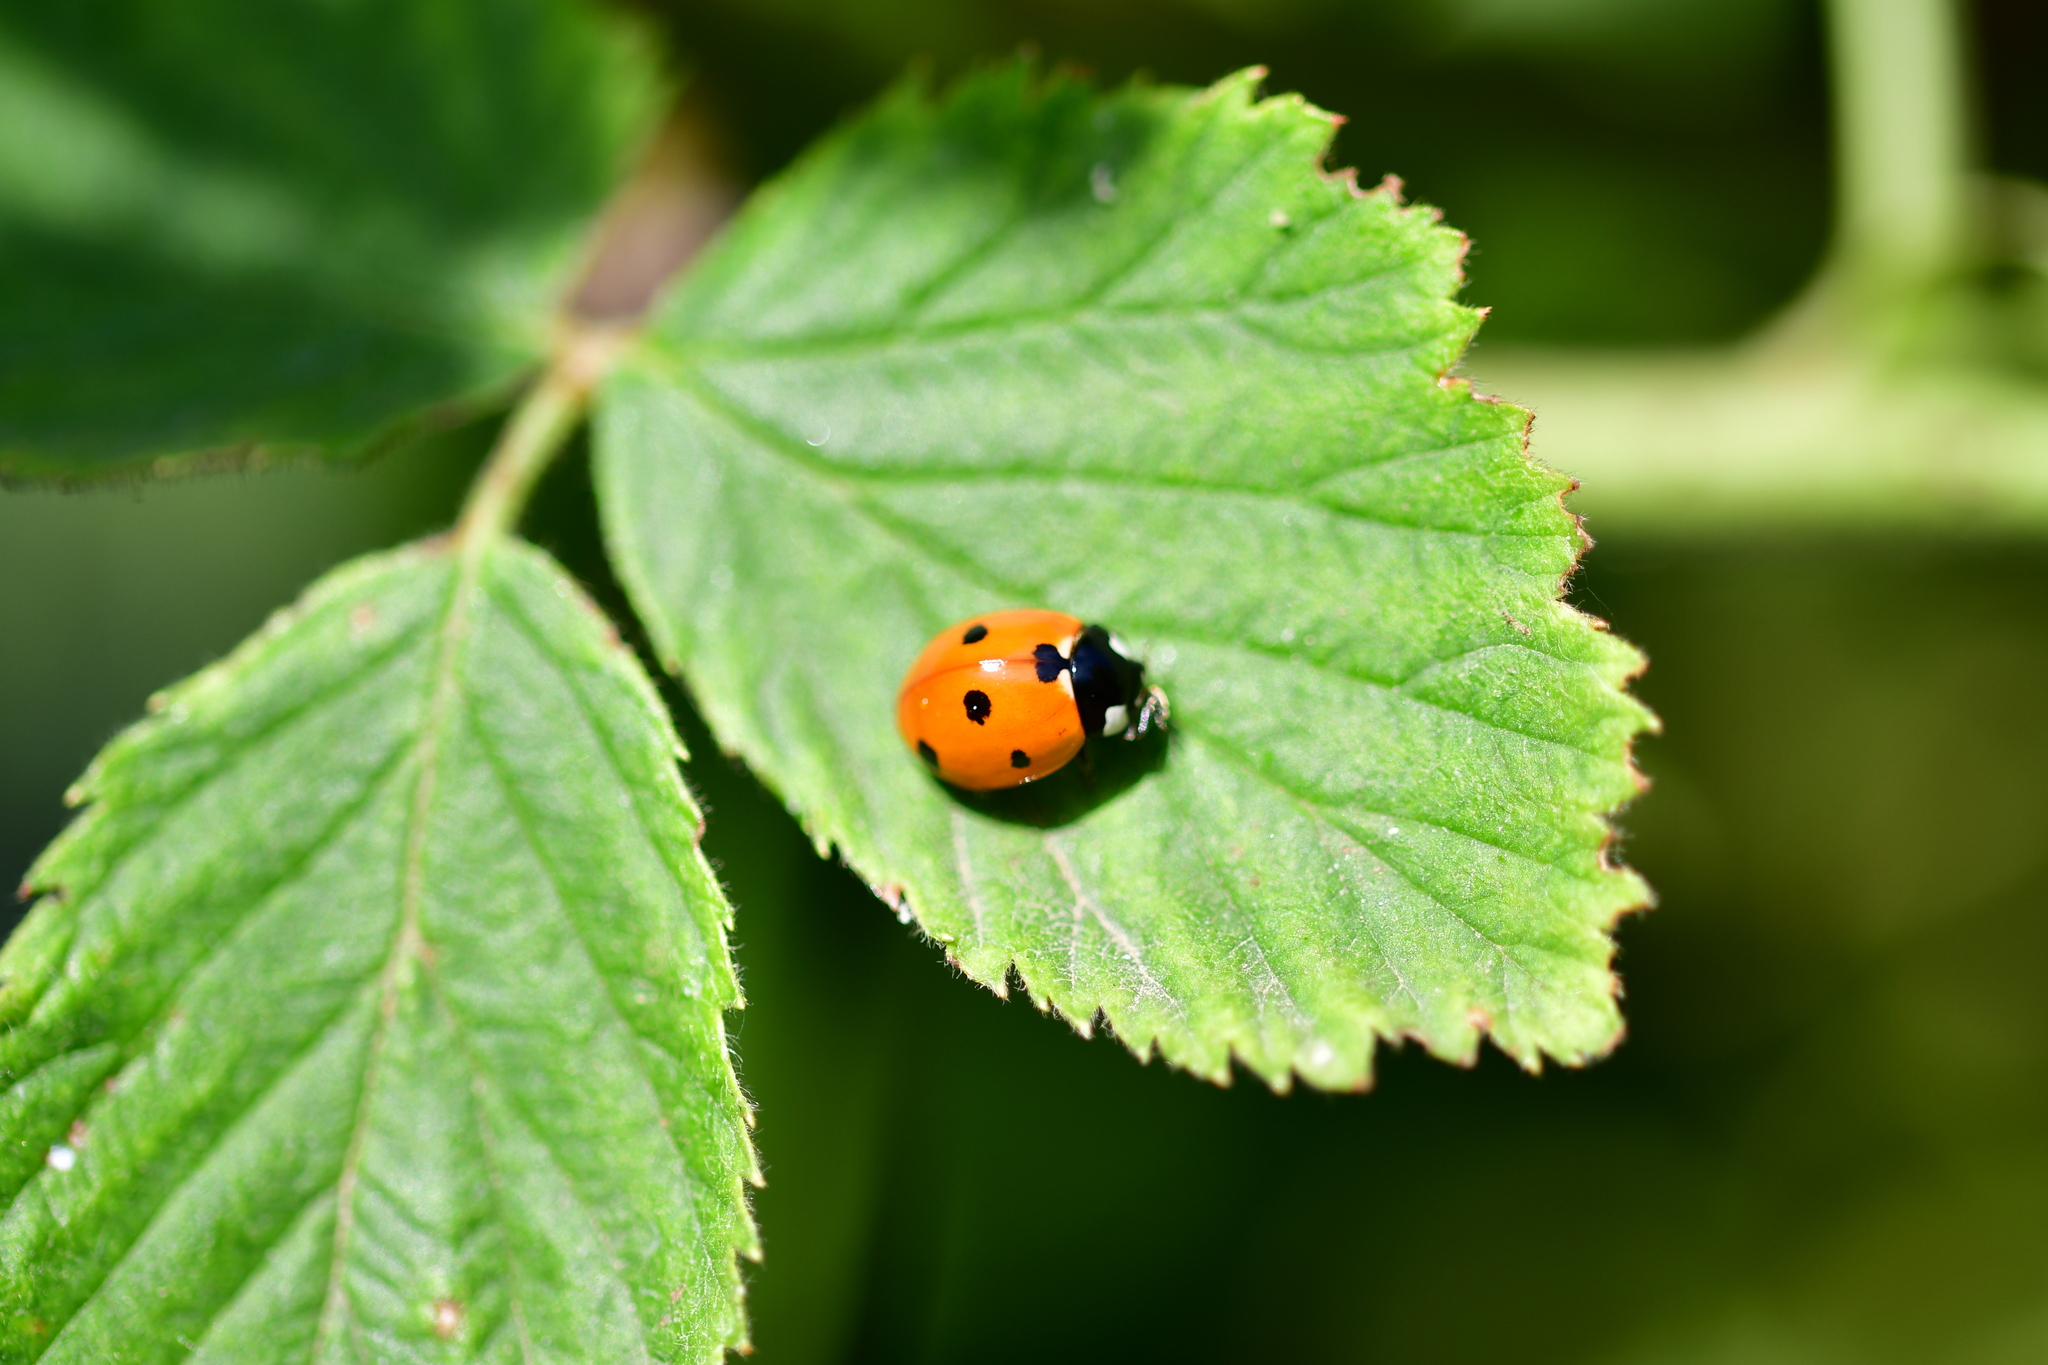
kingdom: Animalia
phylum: Arthropoda
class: Insecta
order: Coleoptera
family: Coccinellidae
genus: Coccinella
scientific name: Coccinella septempunctata
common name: Sevenspotted lady beetle
